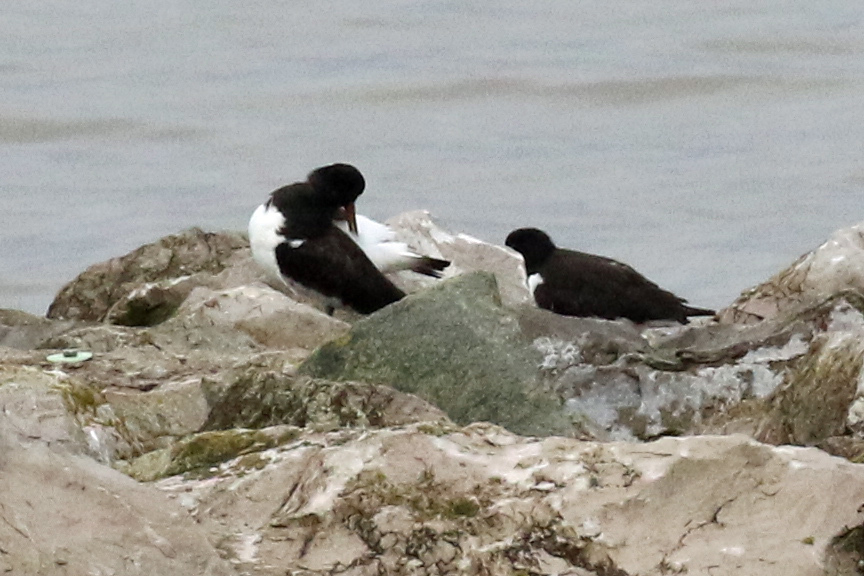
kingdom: Animalia
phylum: Chordata
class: Aves
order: Charadriiformes
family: Haematopodidae
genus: Haematopus
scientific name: Haematopus ostralegus
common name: Eurasian oystercatcher
